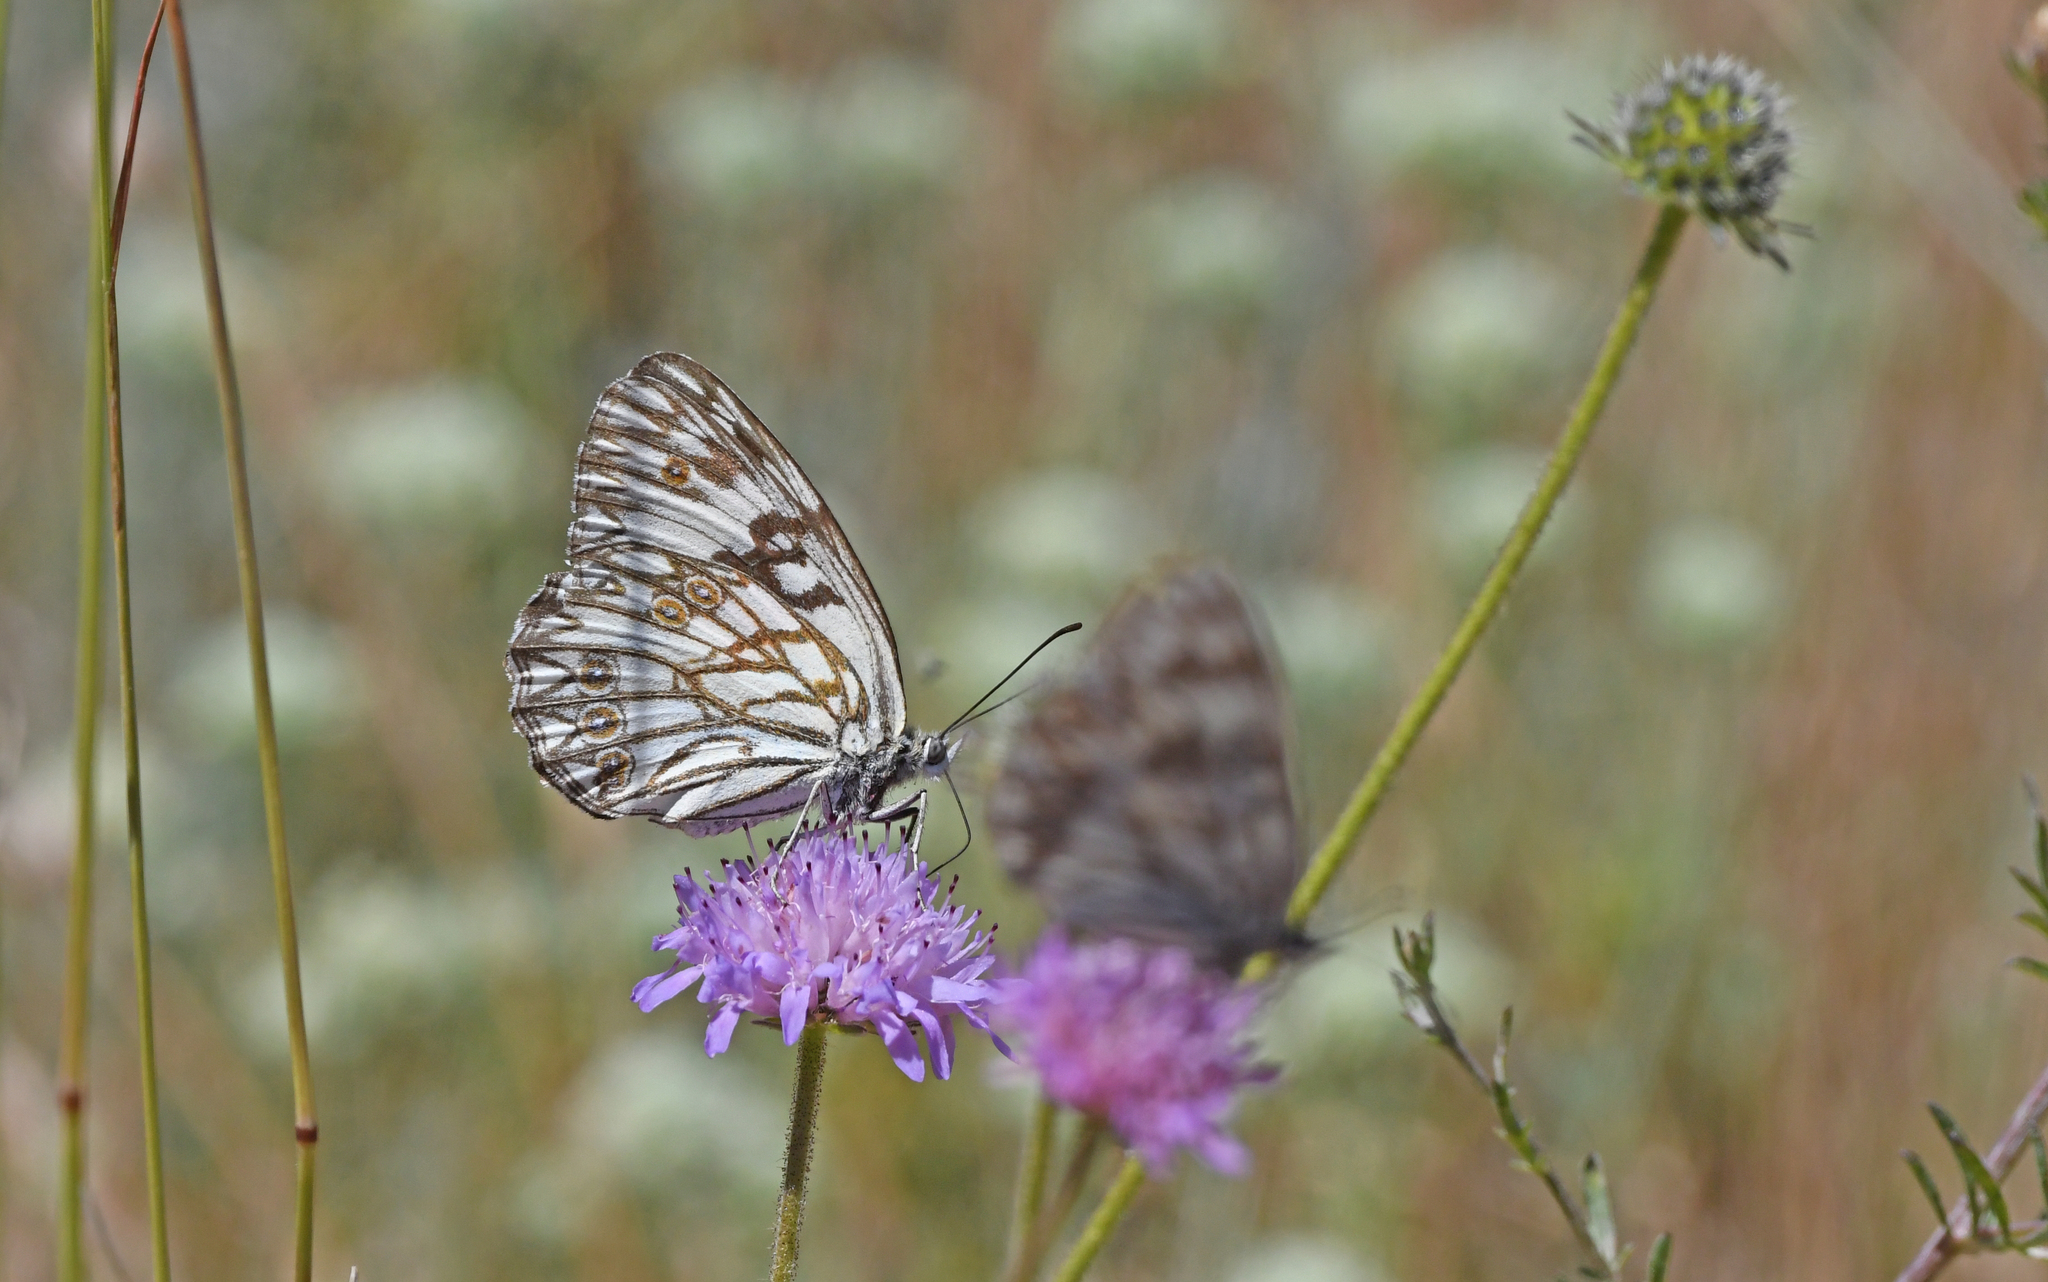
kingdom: Animalia
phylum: Arthropoda
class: Insecta
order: Lepidoptera
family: Nymphalidae
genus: Melanargia
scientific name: Melanargia occitanica
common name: Western marbled white
